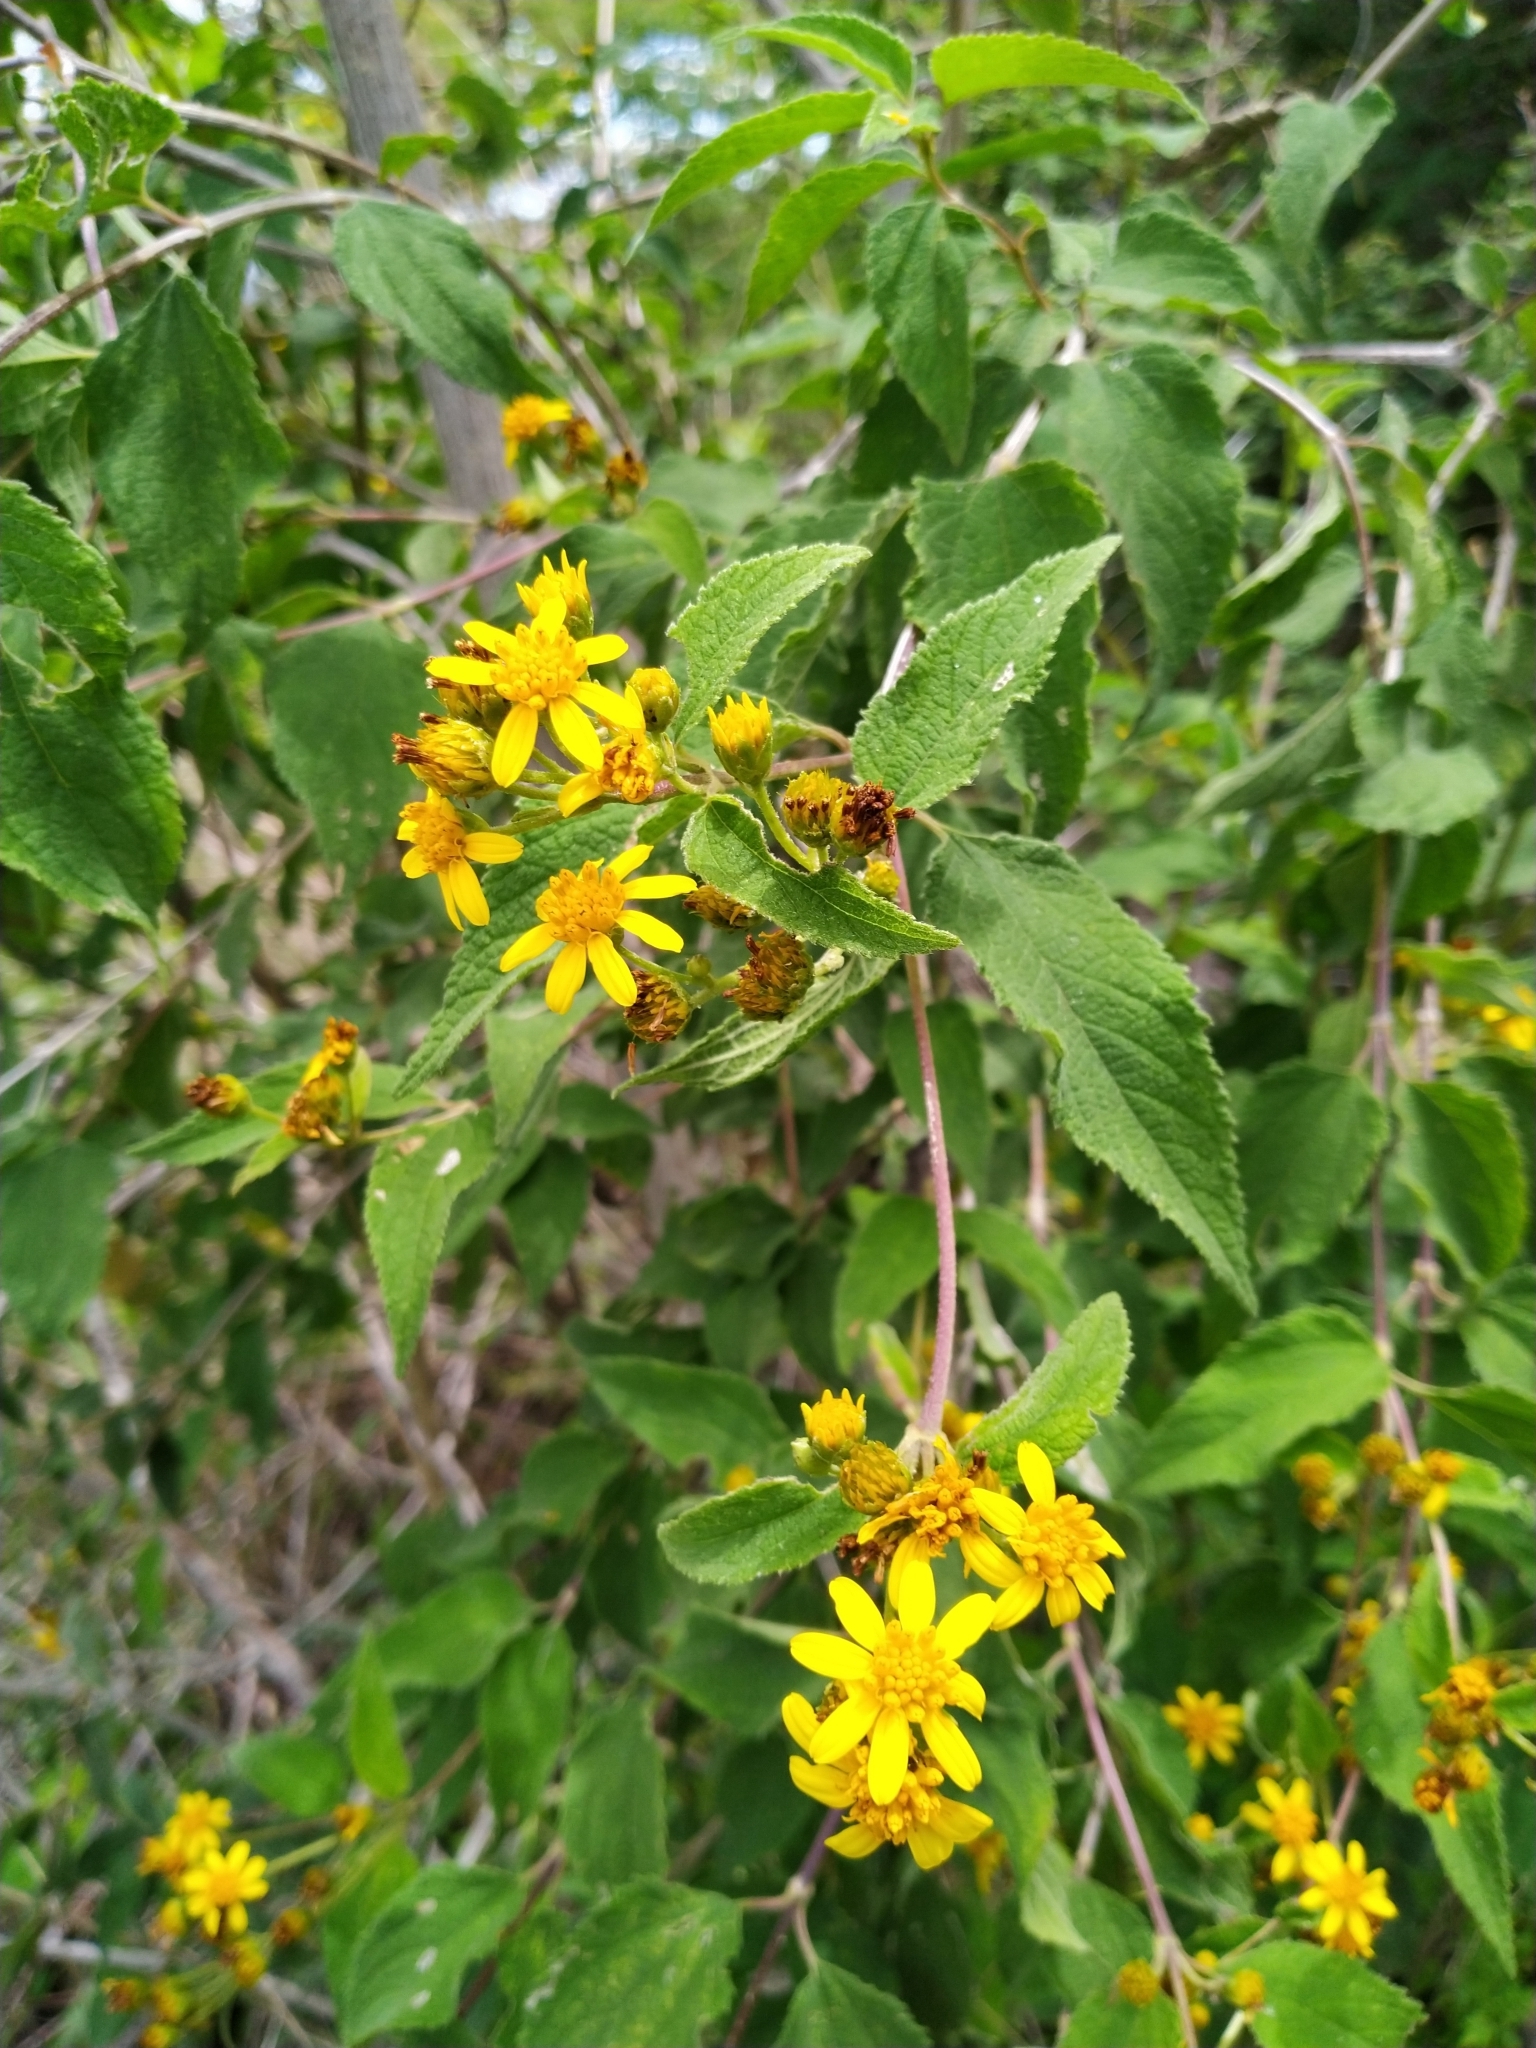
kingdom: Plantae
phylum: Tracheophyta
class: Magnoliopsida
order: Asterales
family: Asteraceae
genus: Calea
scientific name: Calea urticifolia
